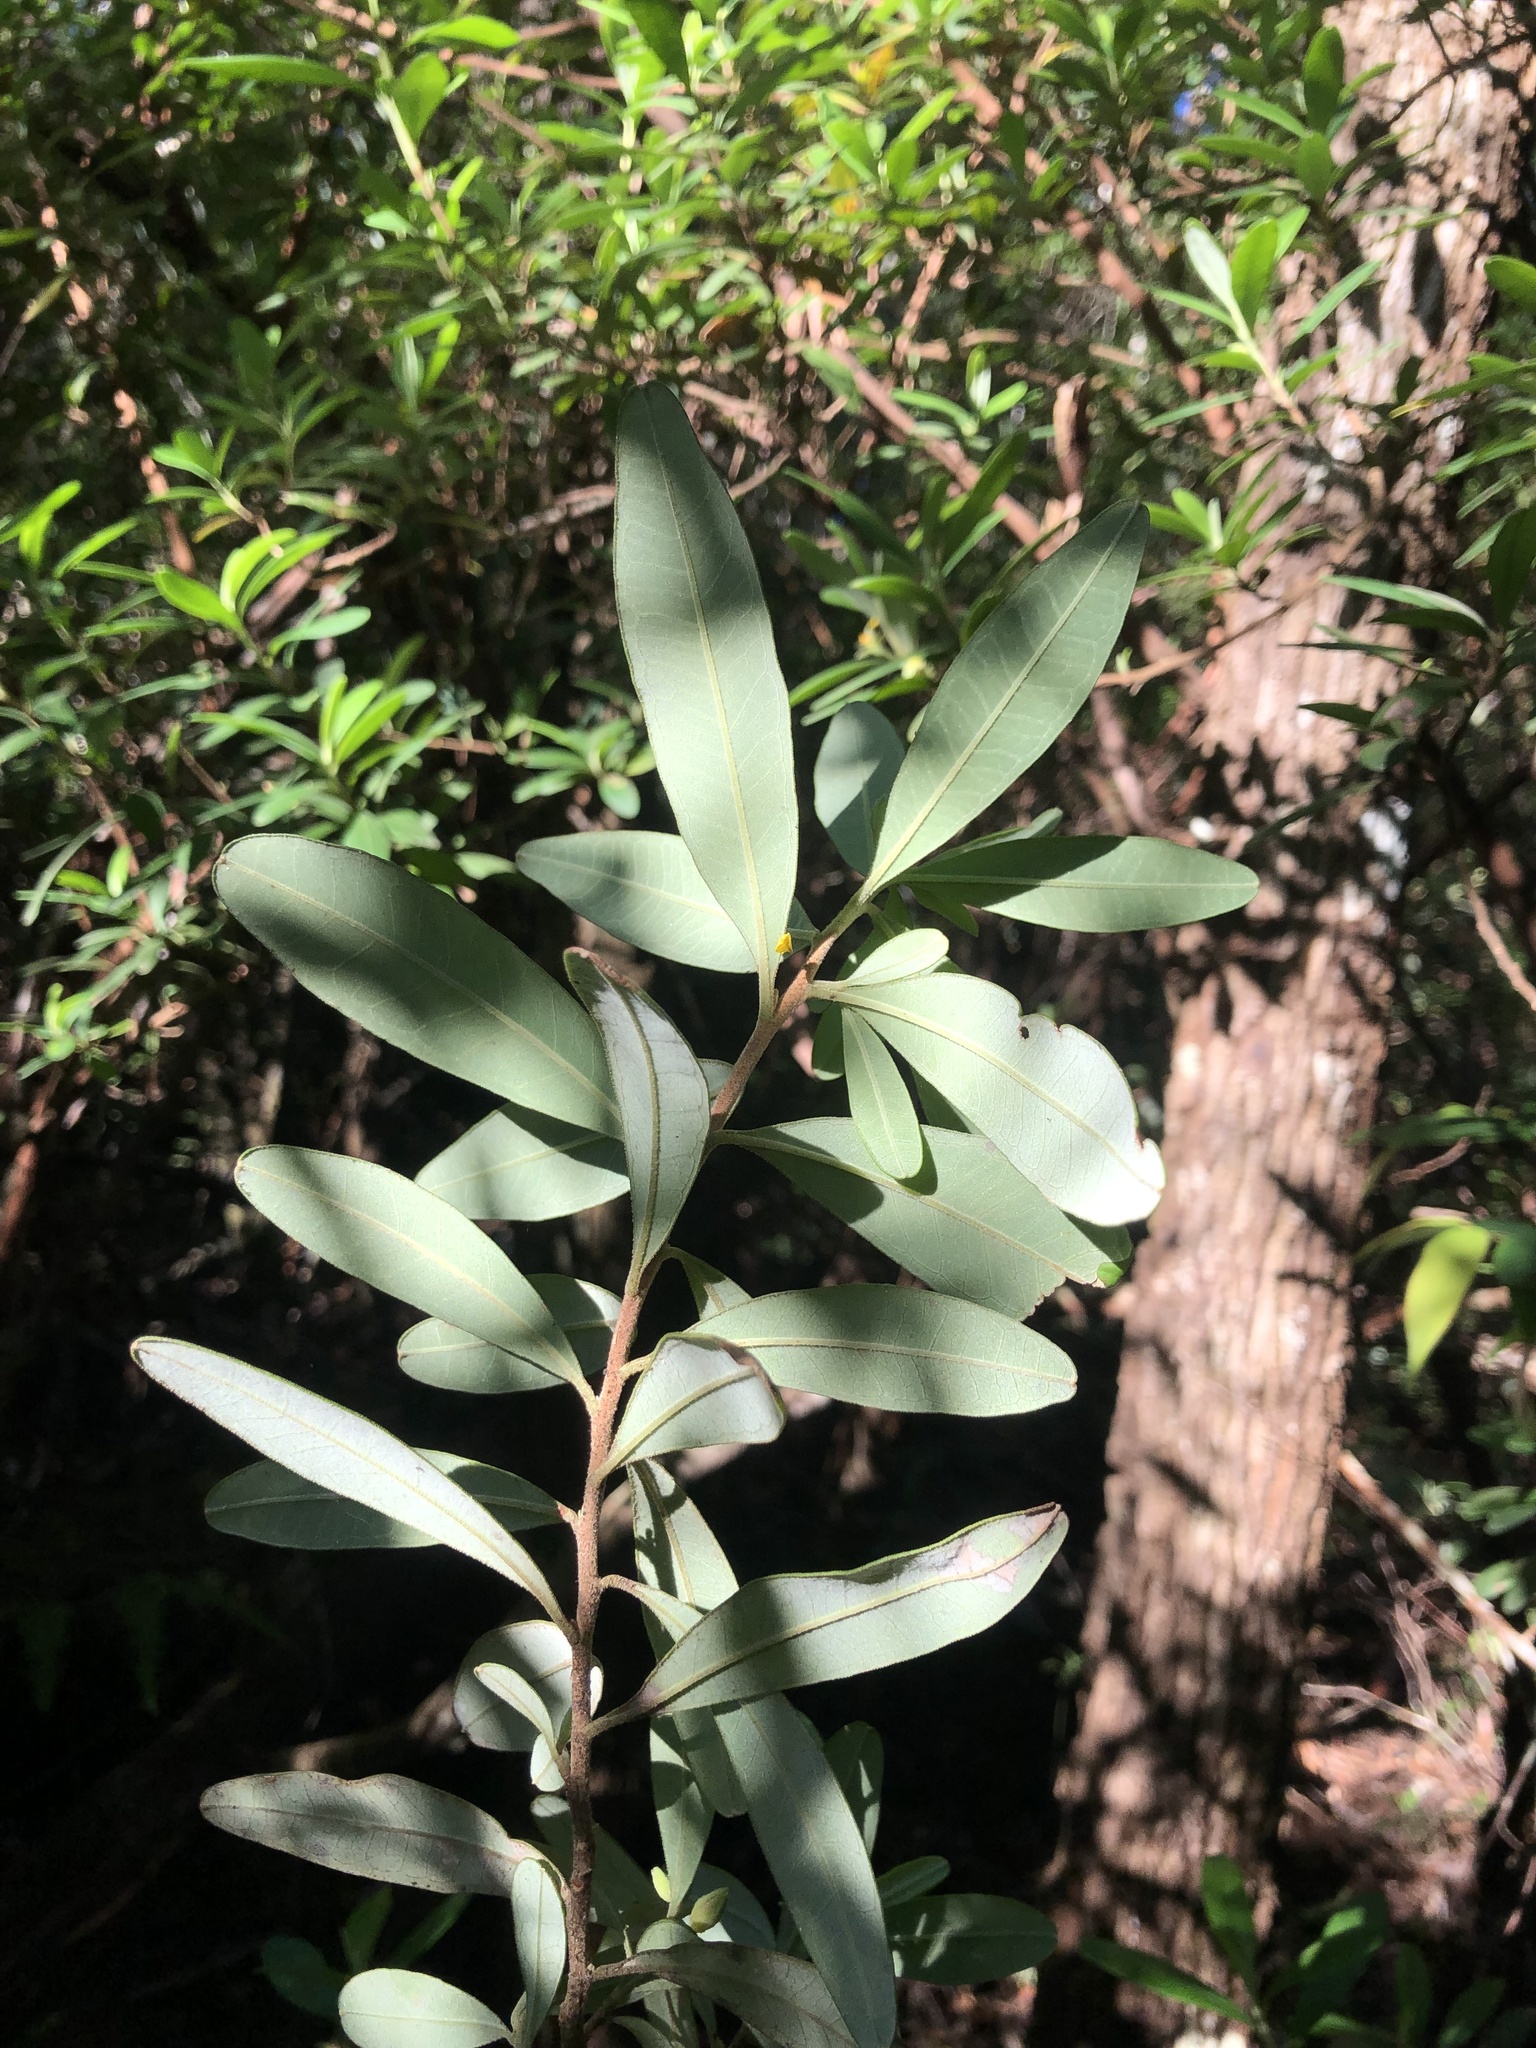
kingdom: Plantae
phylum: Tracheophyta
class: Magnoliopsida
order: Dilleniales
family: Dilleniaceae
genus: Hibbertia
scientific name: Hibbertia hexandra
